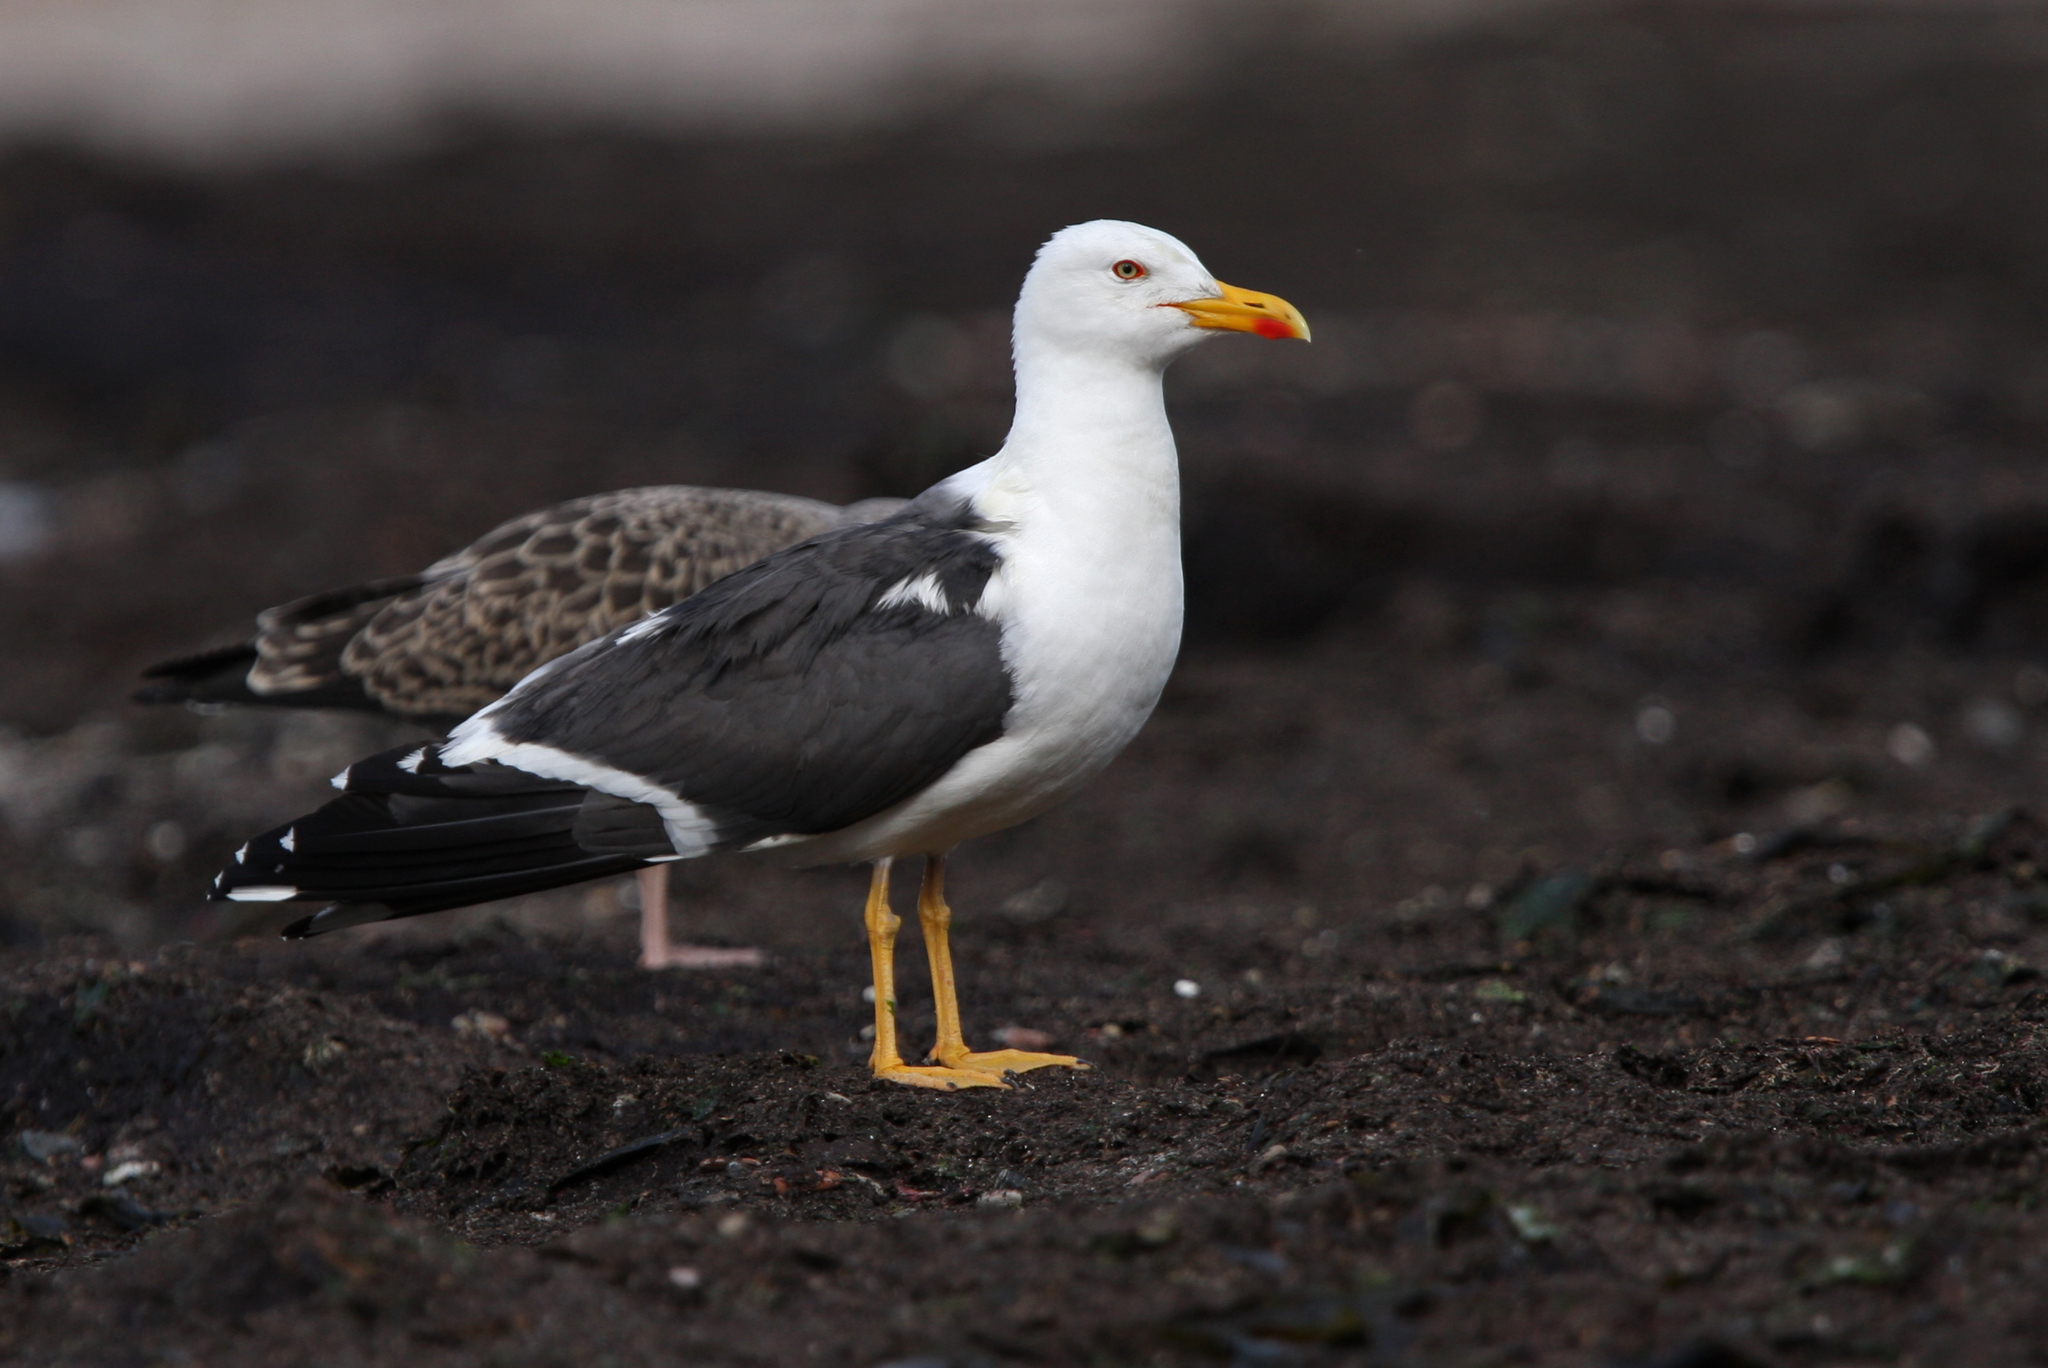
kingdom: Animalia
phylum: Chordata
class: Aves
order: Charadriiformes
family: Laridae
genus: Larus
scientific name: Larus fuscus
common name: Lesser black-backed gull
